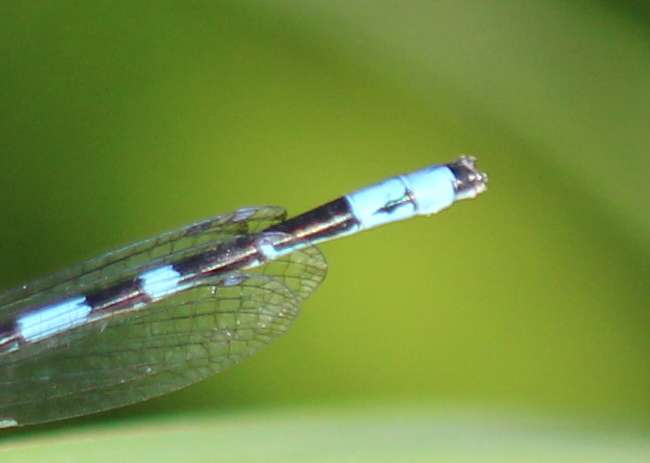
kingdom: Animalia
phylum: Arthropoda
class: Insecta
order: Odonata
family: Coenagrionidae
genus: Enallagma
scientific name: Enallagma laterale
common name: New england bluet
